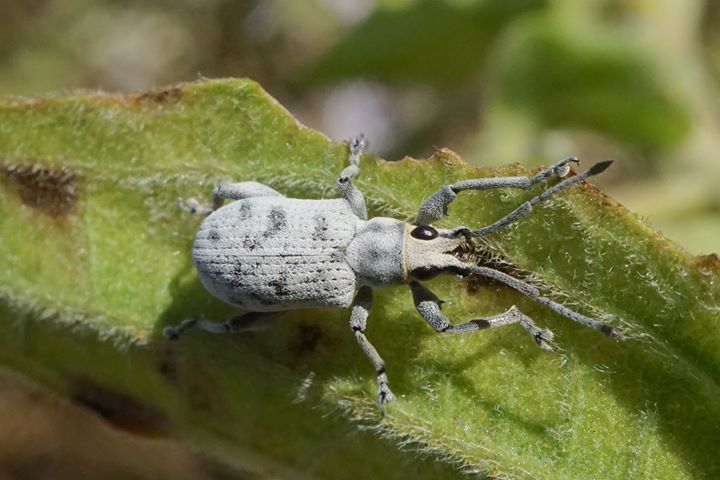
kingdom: Animalia
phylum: Arthropoda
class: Insecta
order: Coleoptera
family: Curculionidae
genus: Myllocerus
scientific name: Myllocerus undecimpustulatus
